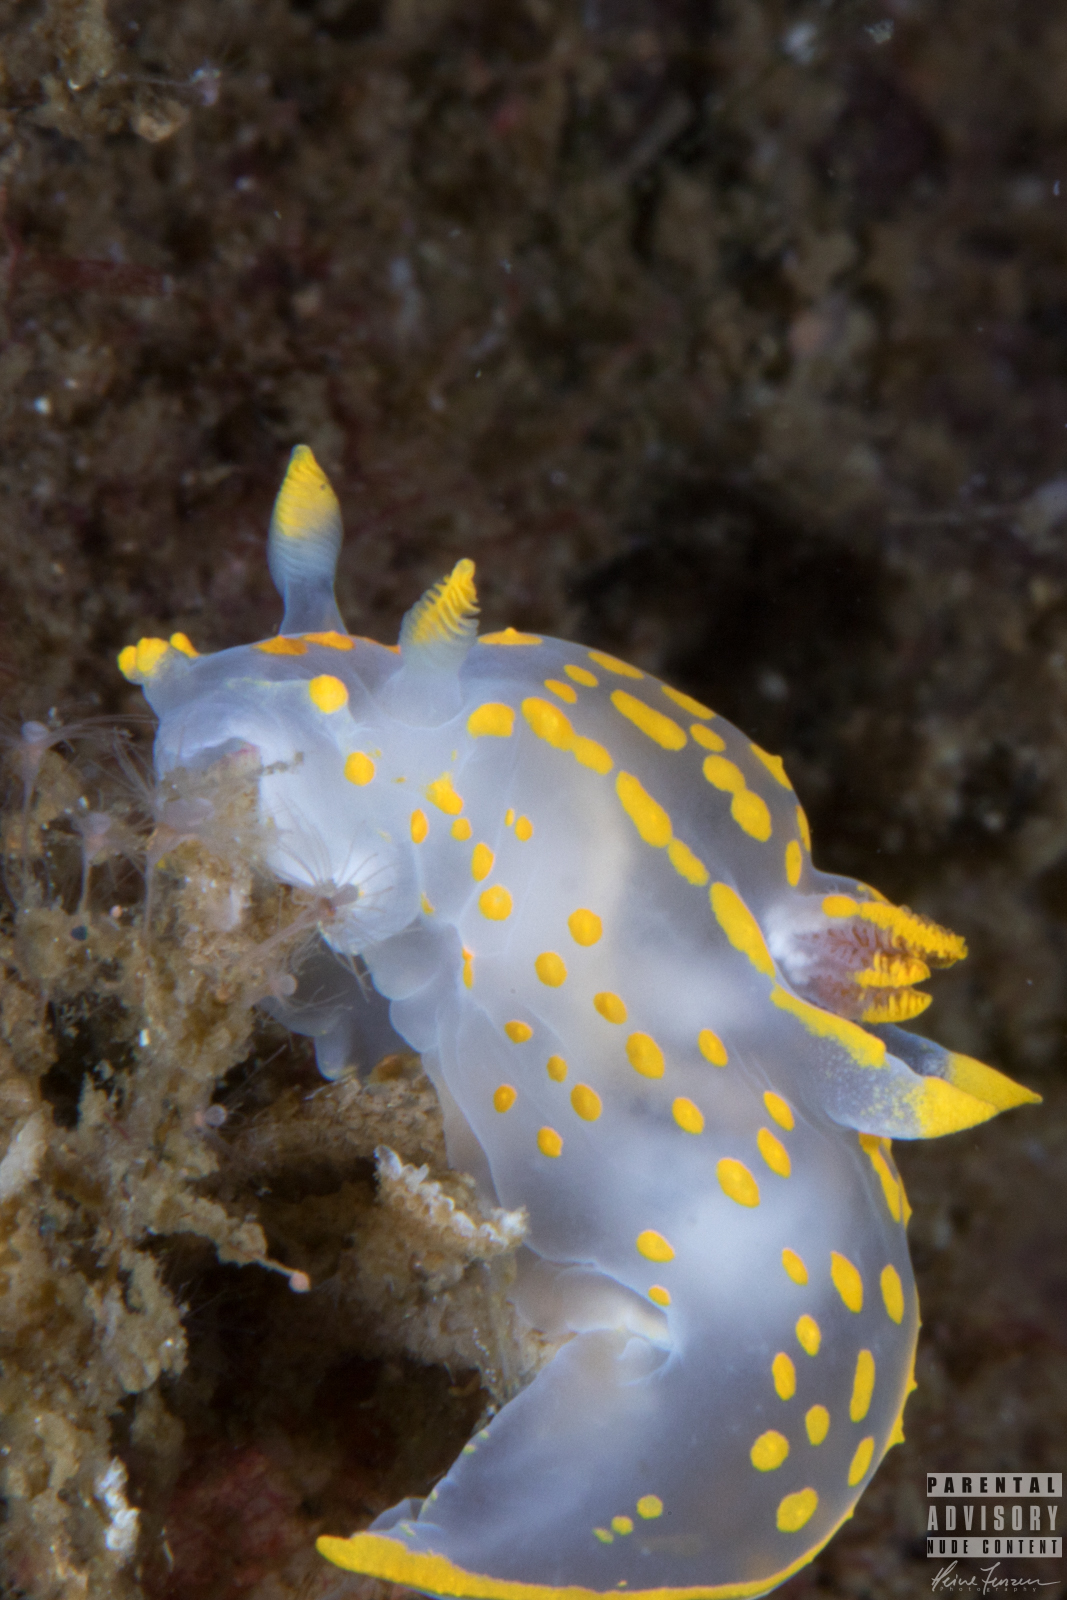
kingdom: Animalia
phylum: Mollusca
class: Gastropoda
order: Nudibranchia
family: Polyceridae
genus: Polycera
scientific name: Polycera quadrilineata
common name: Four-striped polycera
